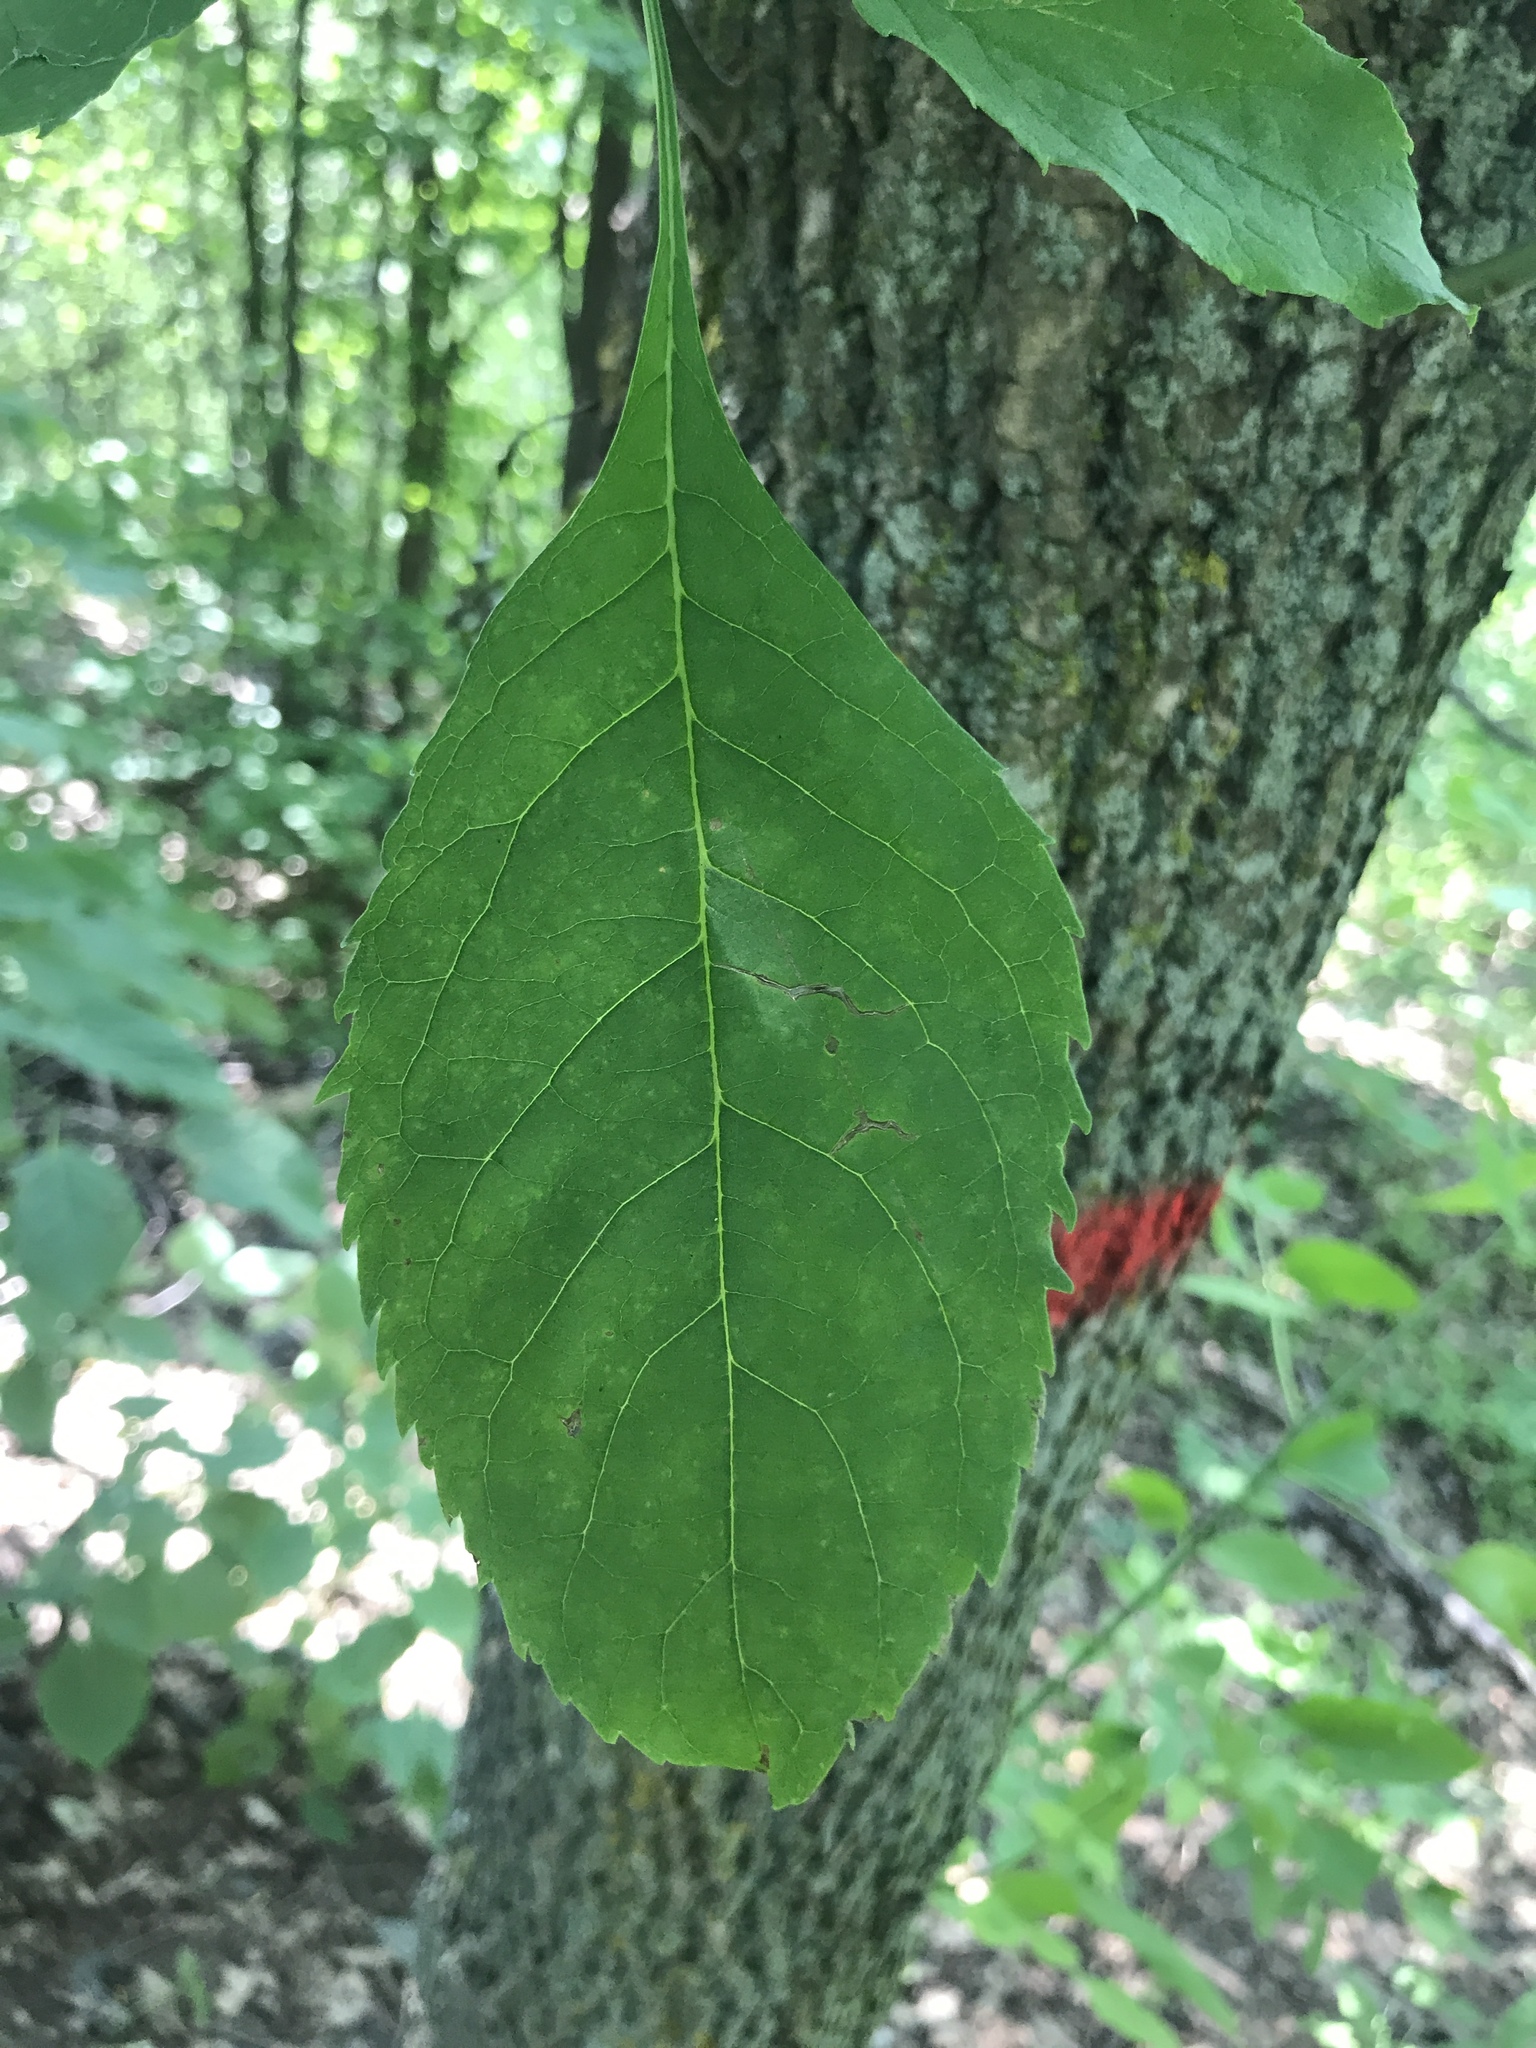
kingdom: Plantae
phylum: Tracheophyta
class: Magnoliopsida
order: Lamiales
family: Oleaceae
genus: Fraxinus
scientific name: Fraxinus pennsylvanica
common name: Green ash
